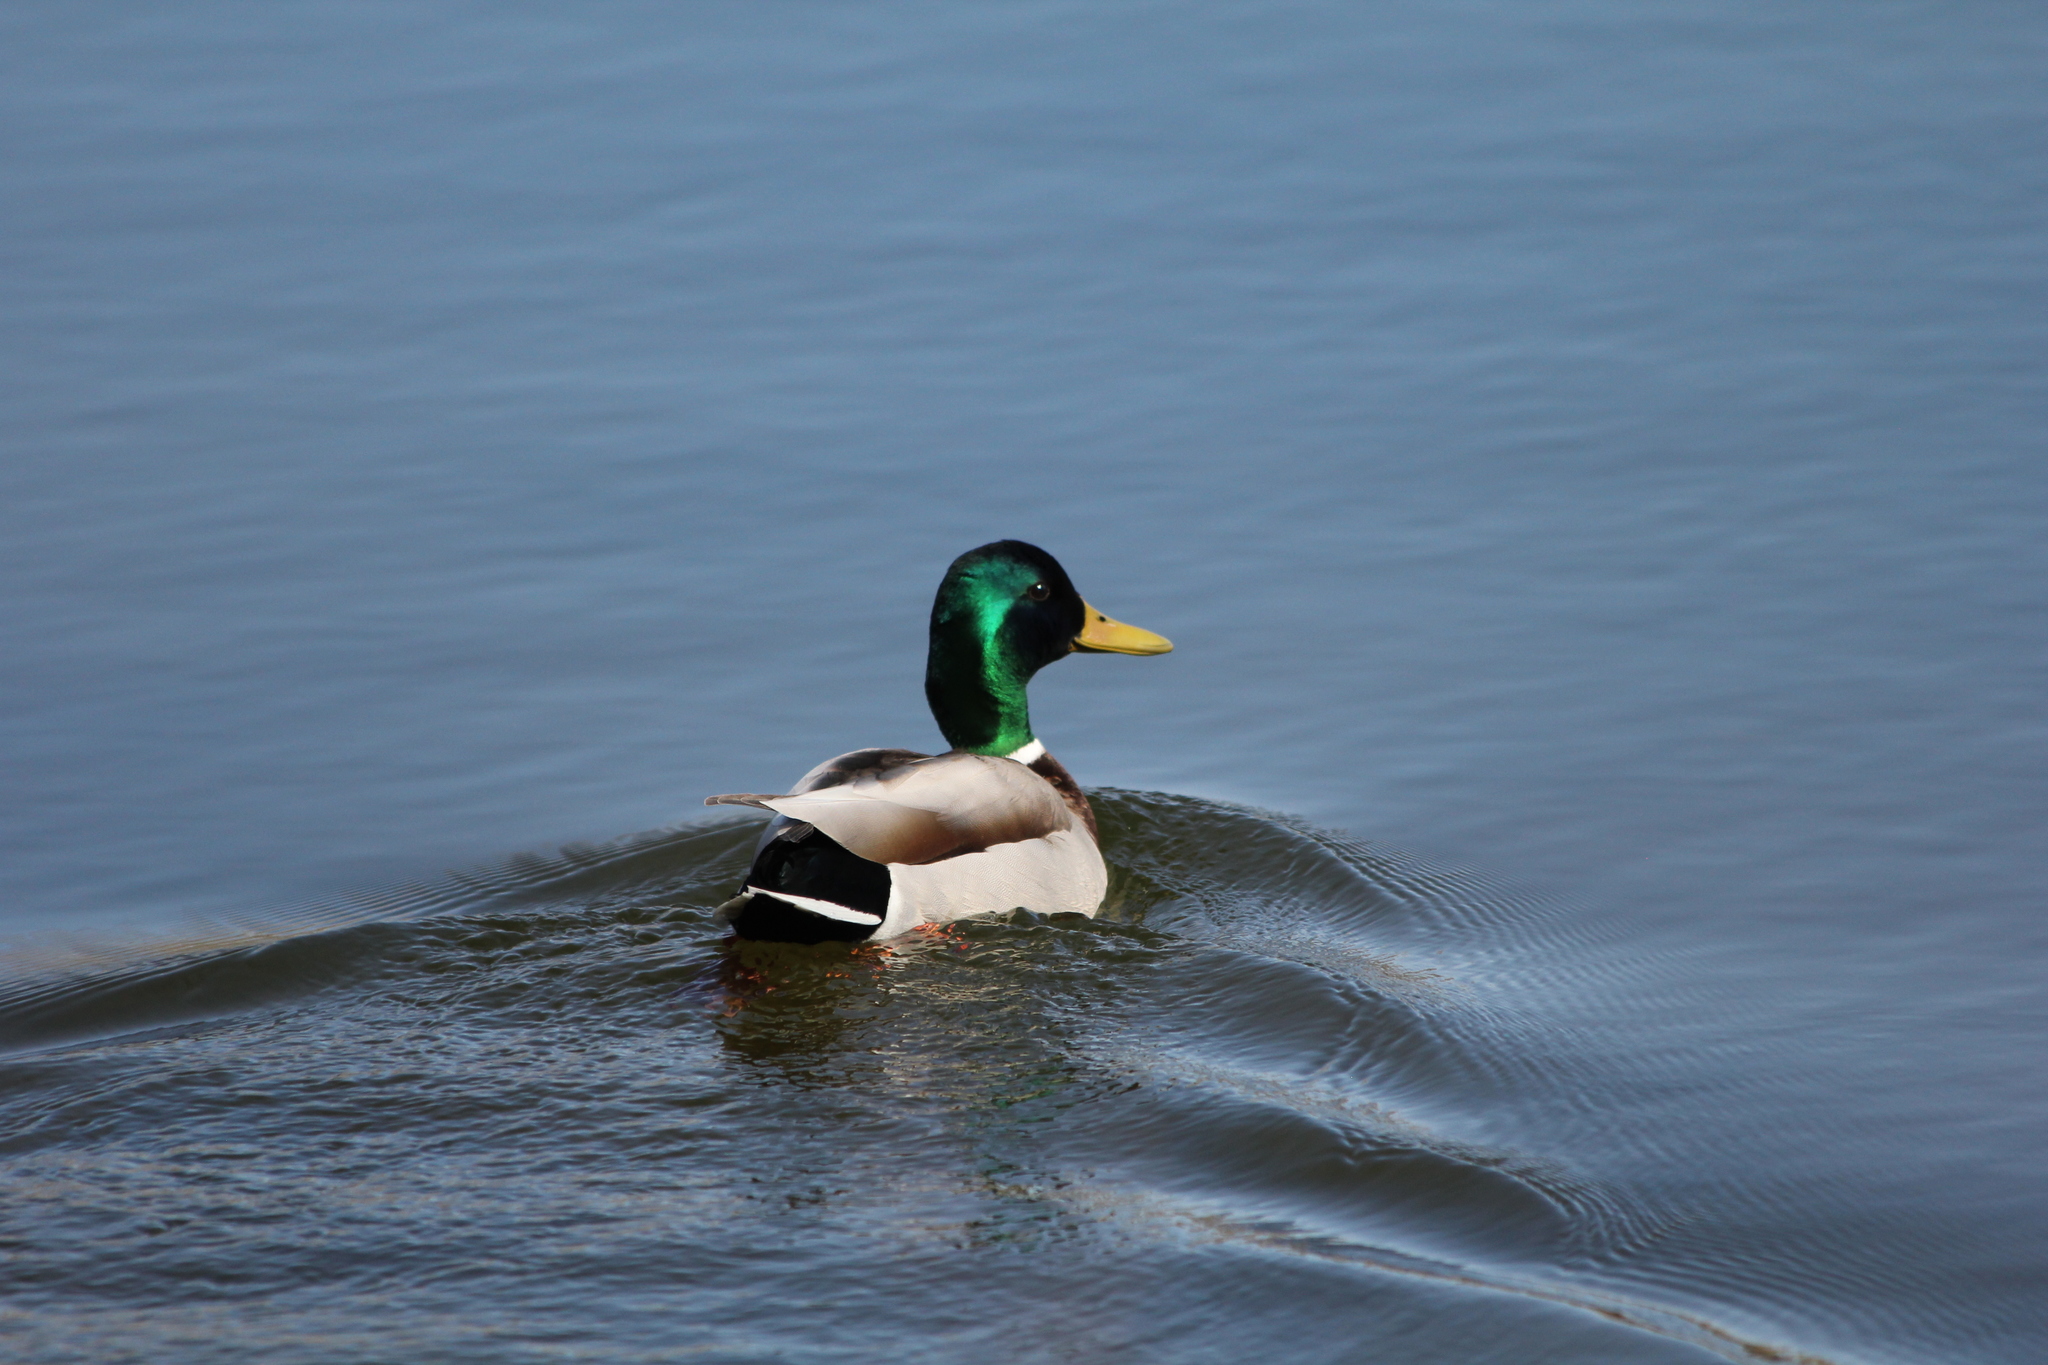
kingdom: Animalia
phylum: Chordata
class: Aves
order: Anseriformes
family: Anatidae
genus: Anas
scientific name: Anas platyrhynchos
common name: Mallard
